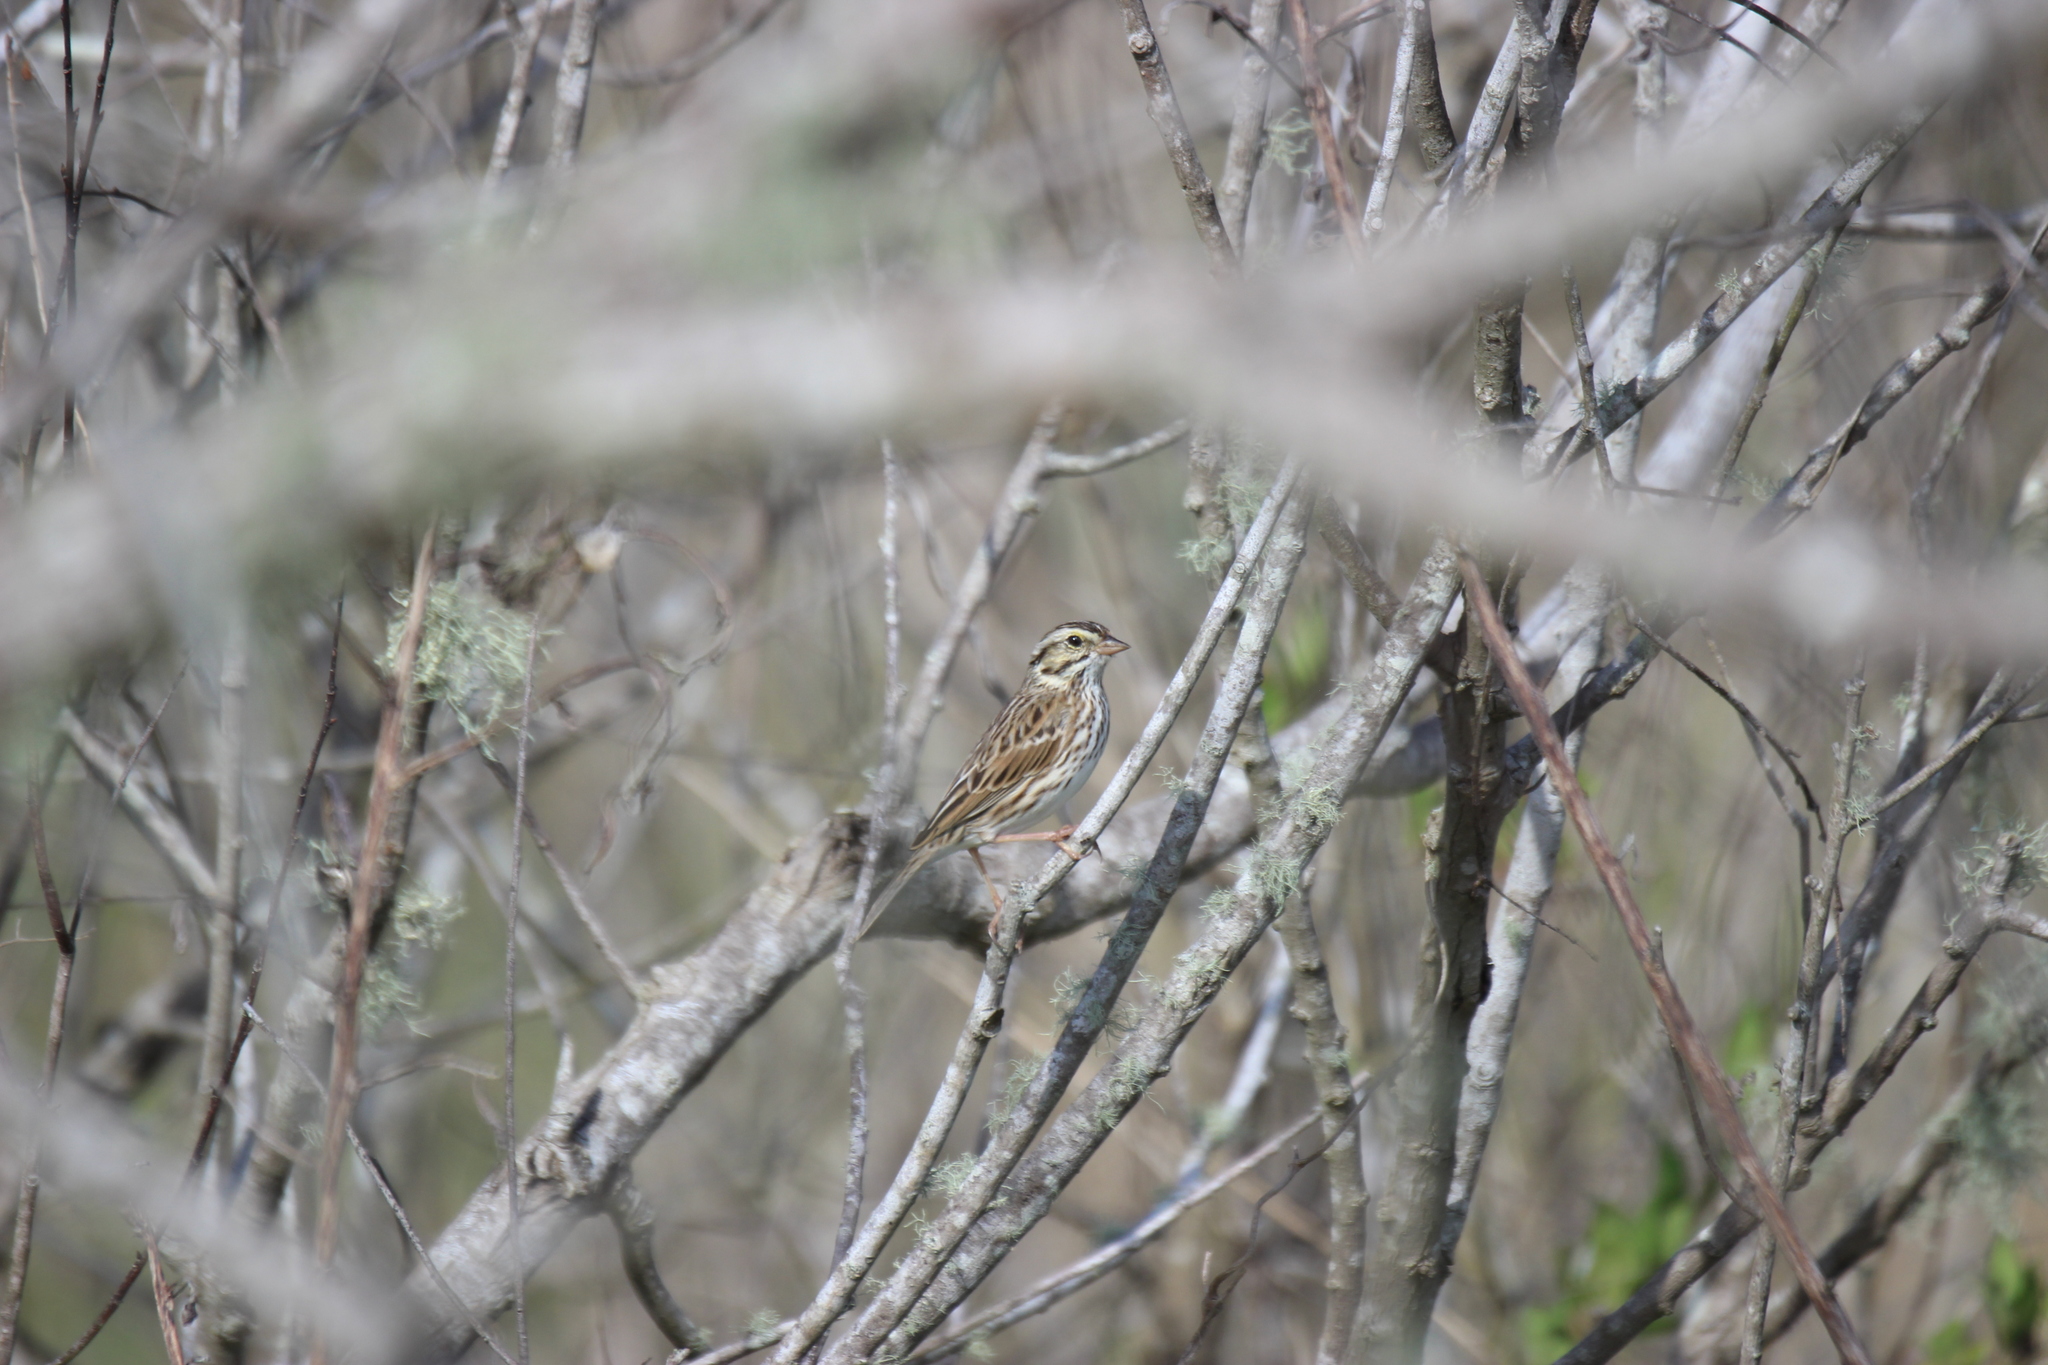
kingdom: Animalia
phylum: Chordata
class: Aves
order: Passeriformes
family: Passerellidae
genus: Passerculus
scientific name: Passerculus sandwichensis
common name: Savannah sparrow
